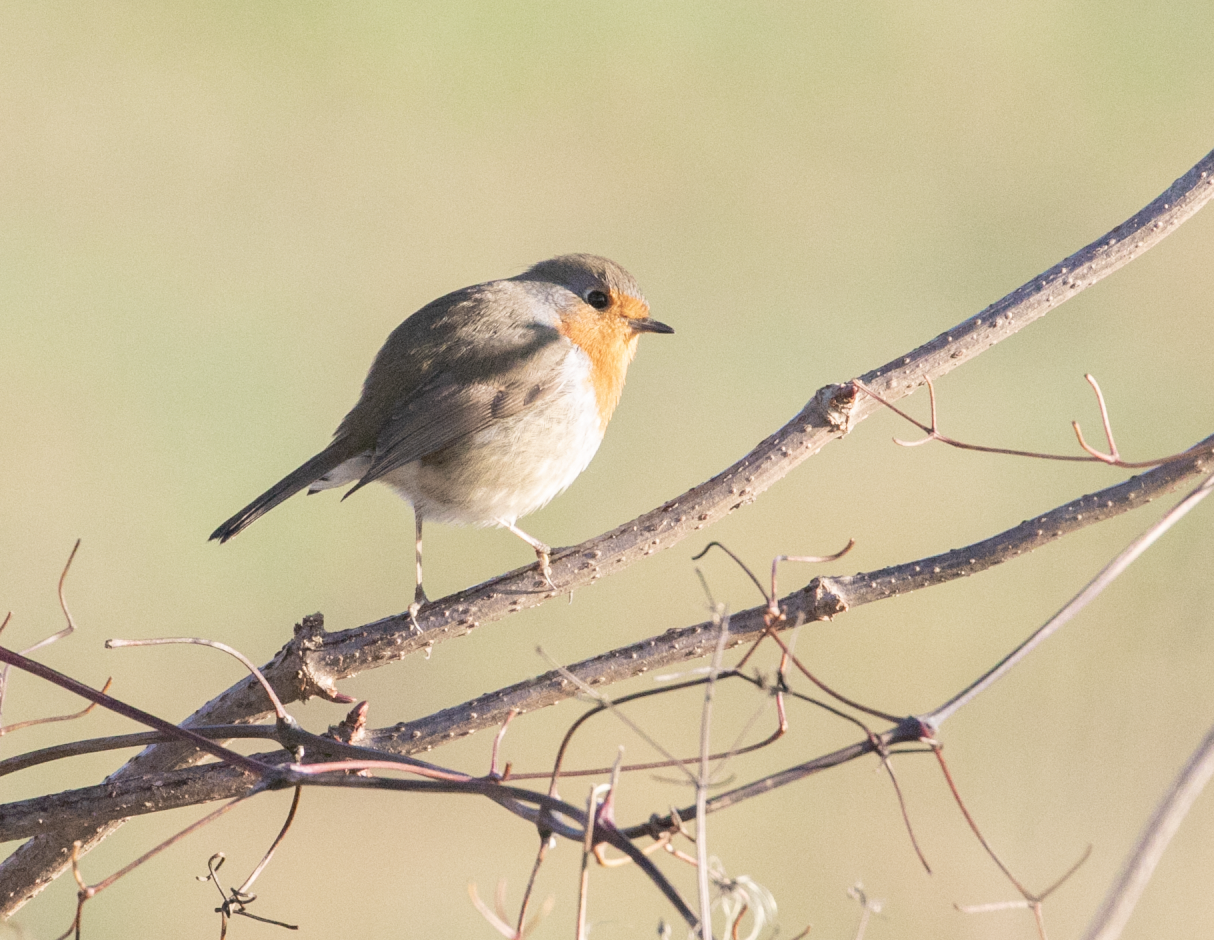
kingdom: Animalia
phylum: Chordata
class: Aves
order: Passeriformes
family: Muscicapidae
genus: Erithacus
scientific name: Erithacus rubecula
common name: European robin
